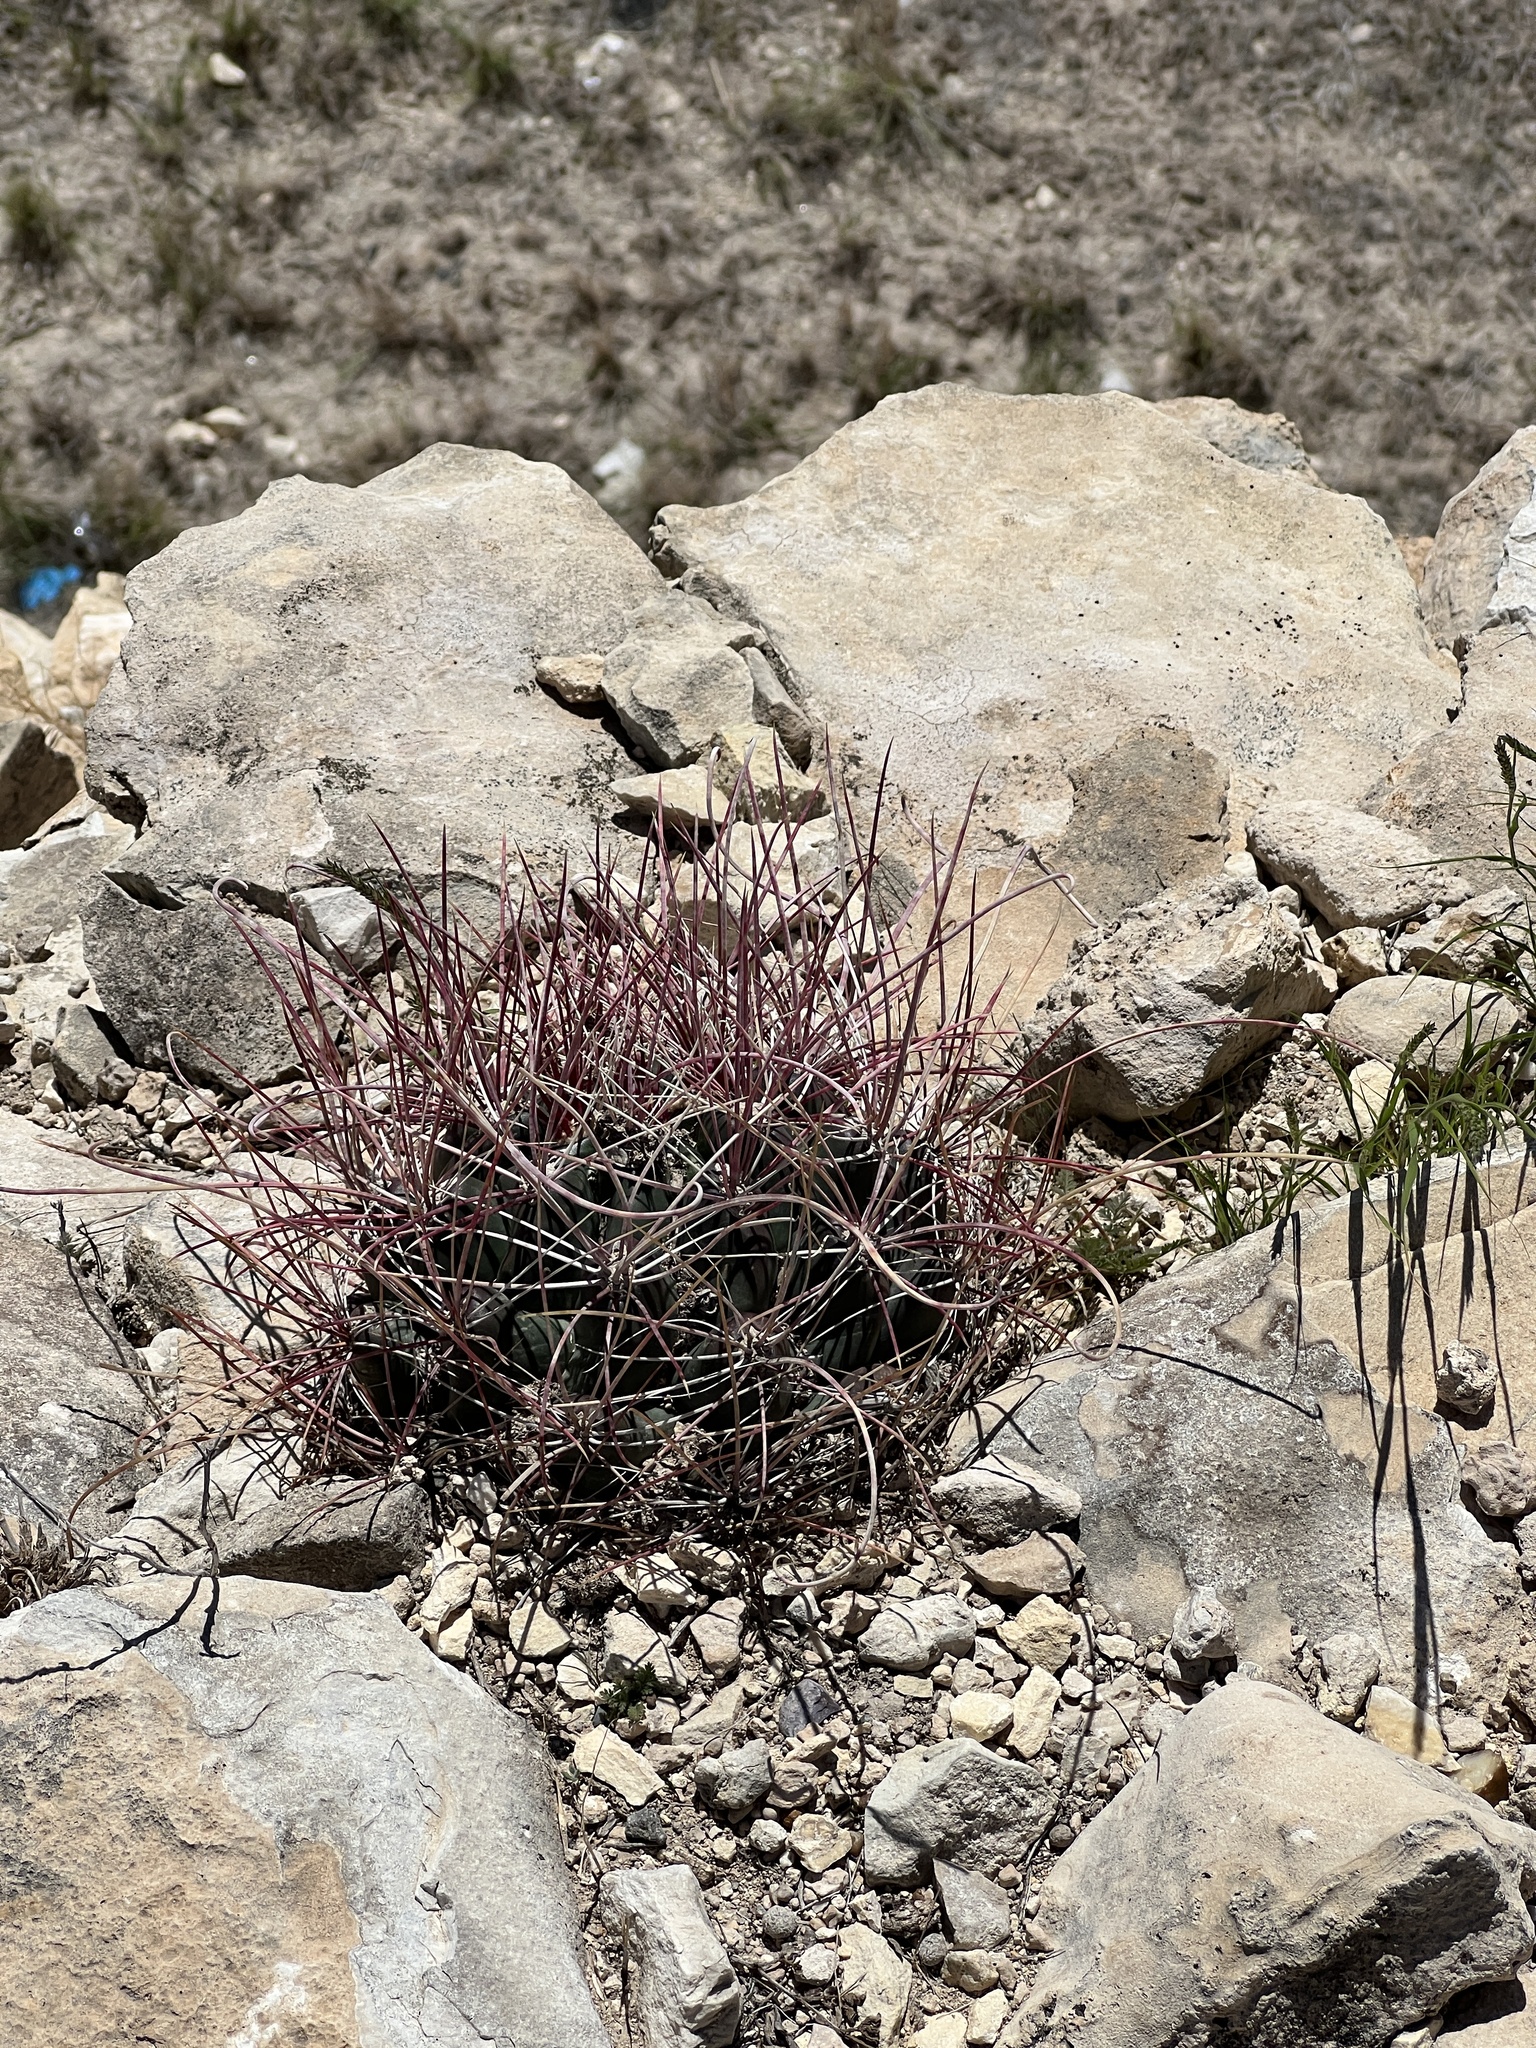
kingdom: Plantae
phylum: Tracheophyta
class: Magnoliopsida
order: Caryophyllales
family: Cactaceae
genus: Bisnaga
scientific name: Bisnaga hamatacantha
